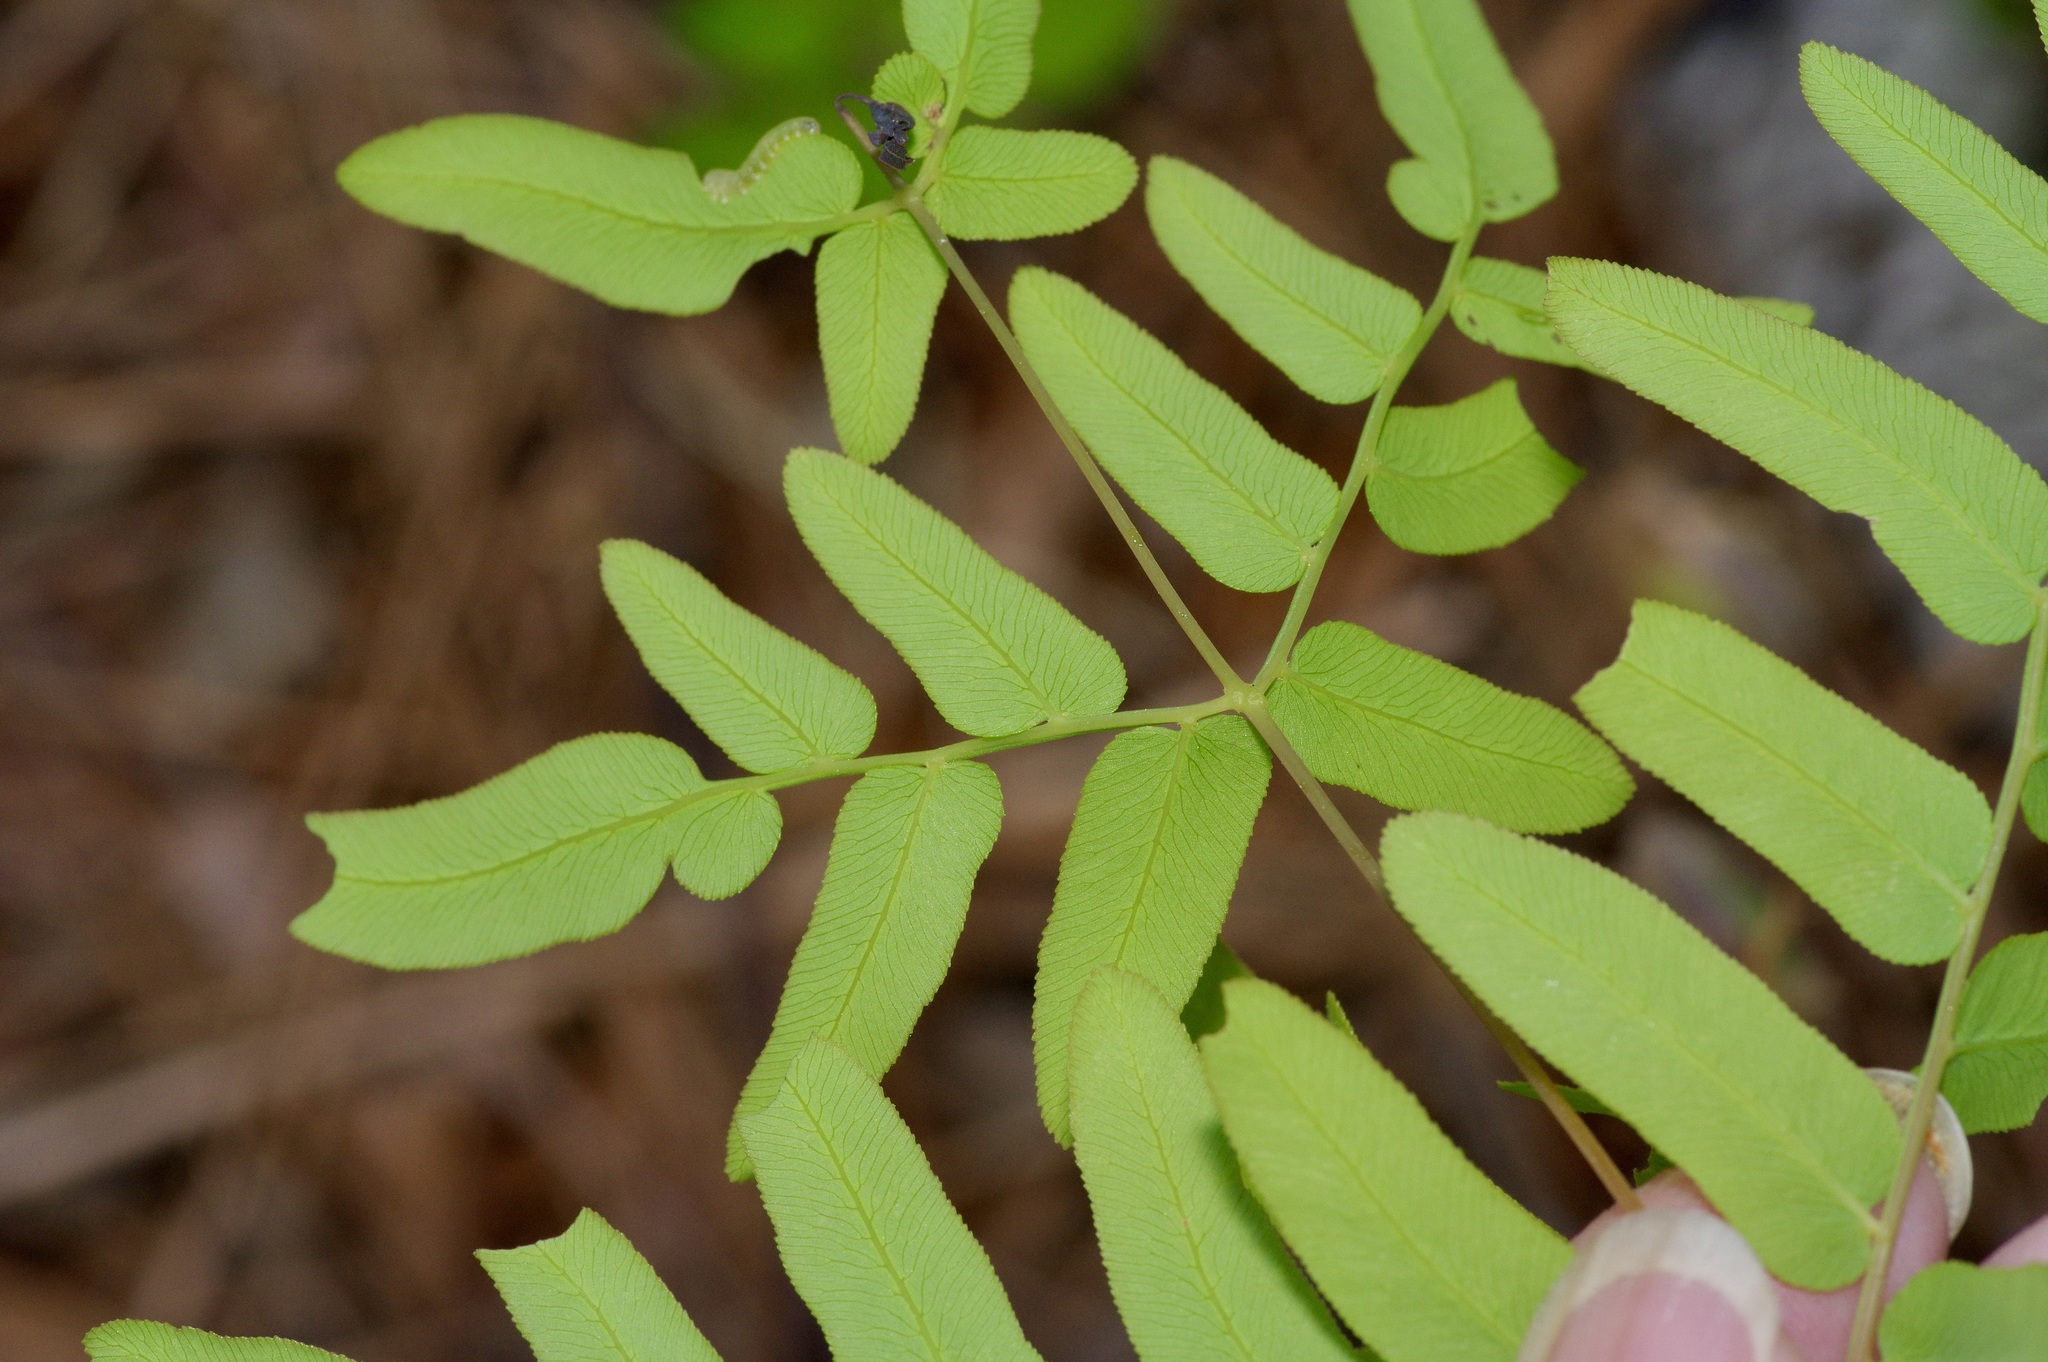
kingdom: Plantae
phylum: Tracheophyta
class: Polypodiopsida
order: Osmundales
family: Osmundaceae
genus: Osmunda
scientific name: Osmunda spectabilis
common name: American royal fern
